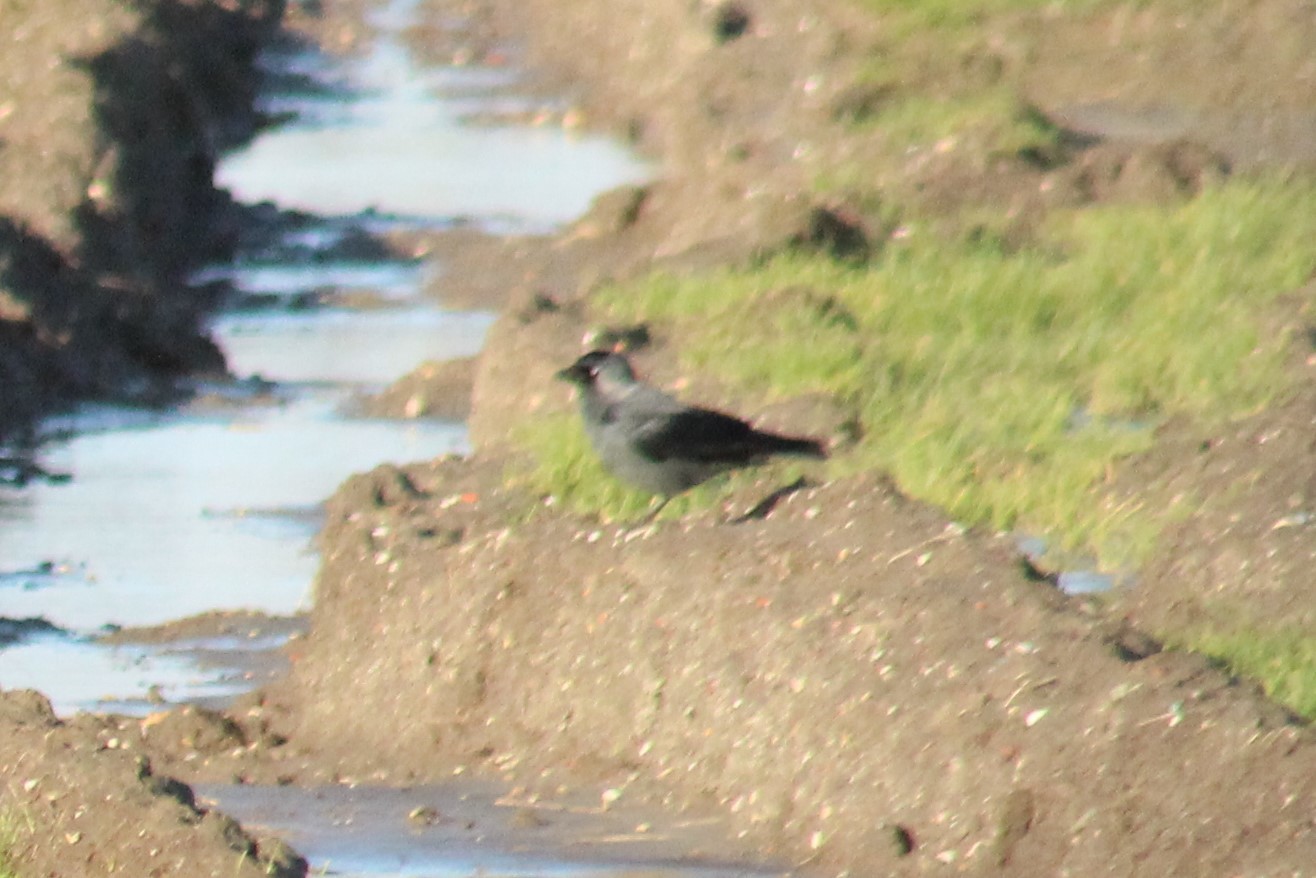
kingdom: Animalia
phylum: Chordata
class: Aves
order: Passeriformes
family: Corvidae
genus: Coloeus
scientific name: Coloeus monedula
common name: Western jackdaw
